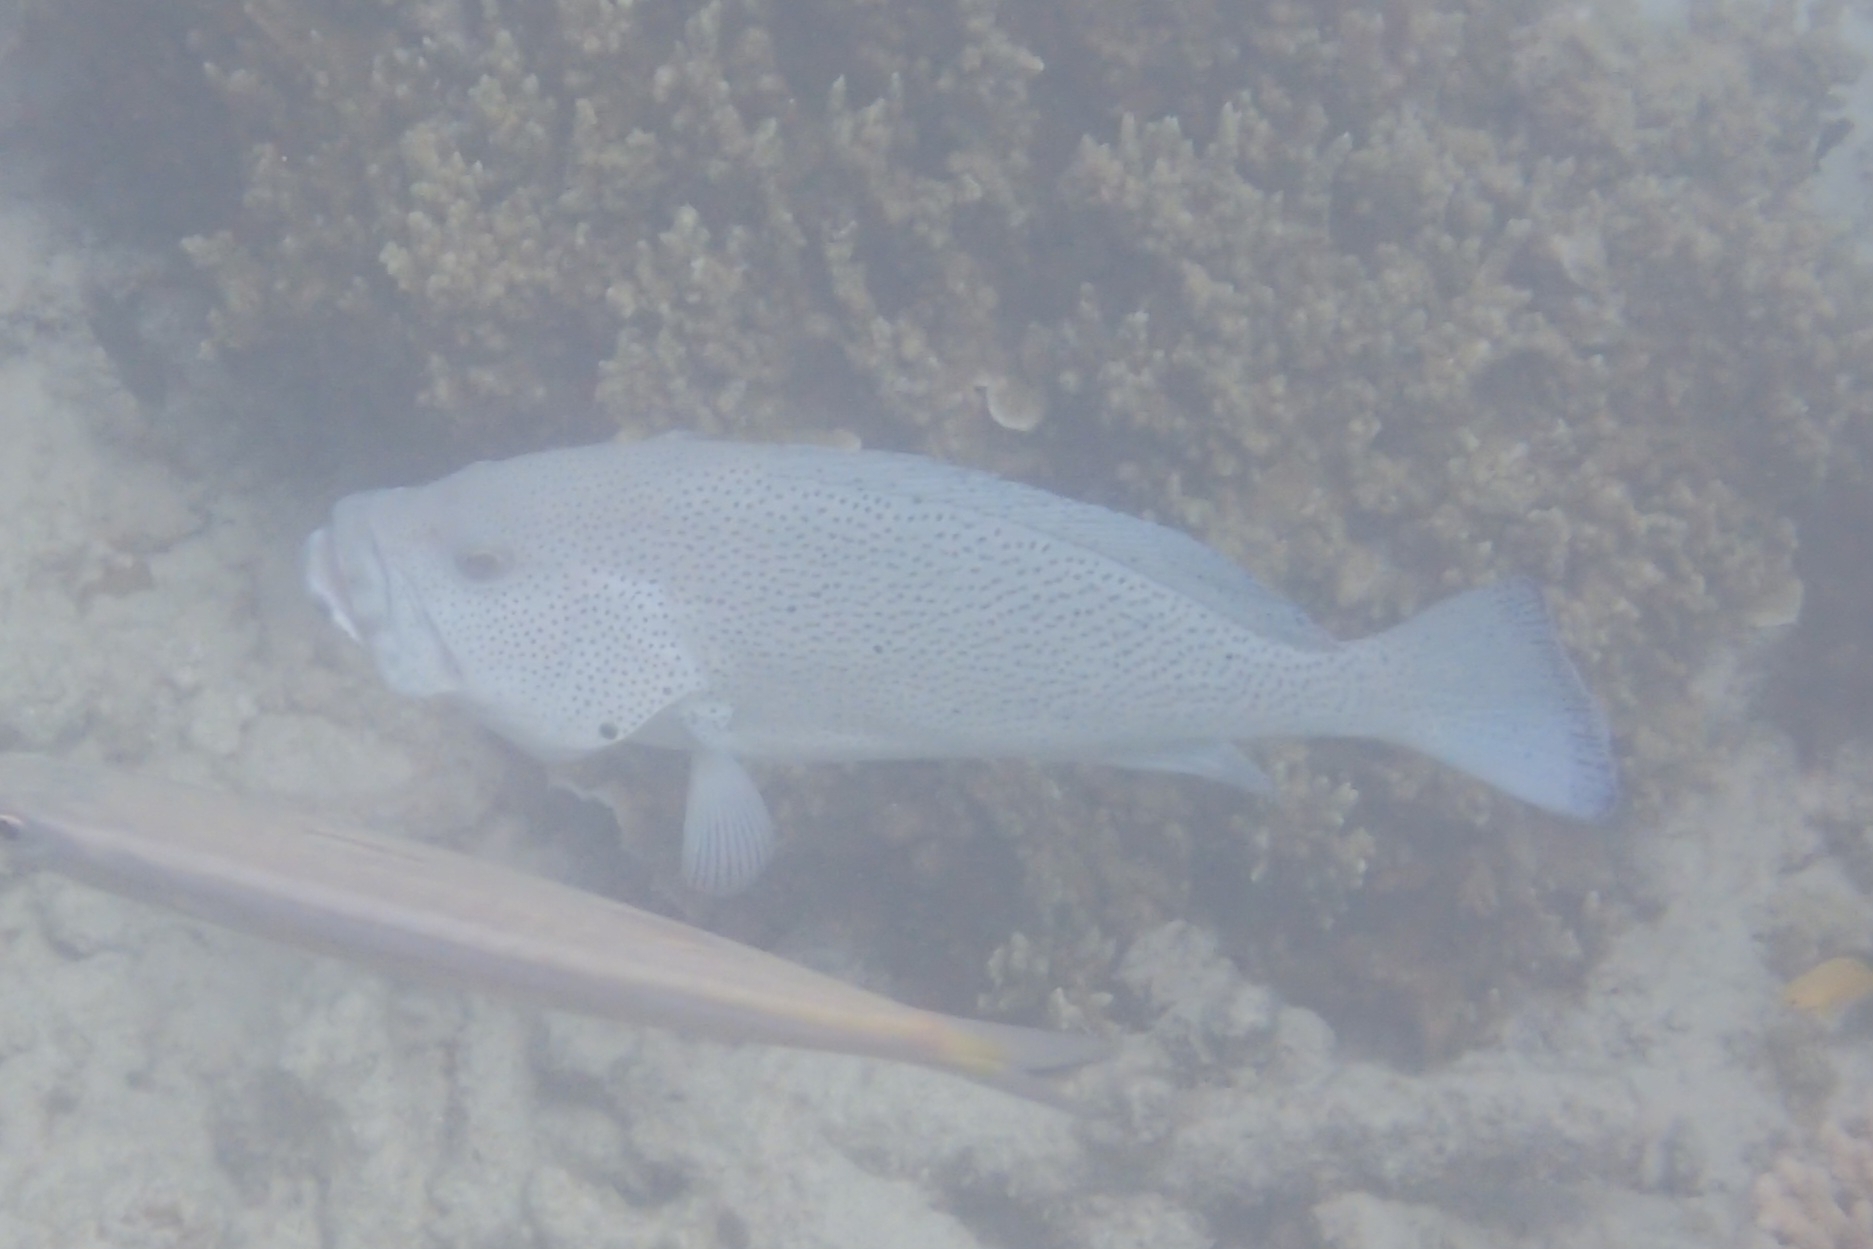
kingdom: Animalia
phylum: Chordata
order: Perciformes
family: Serranidae
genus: Epinephelus
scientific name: Epinephelus cyanopodus
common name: Speckled blue grouper
